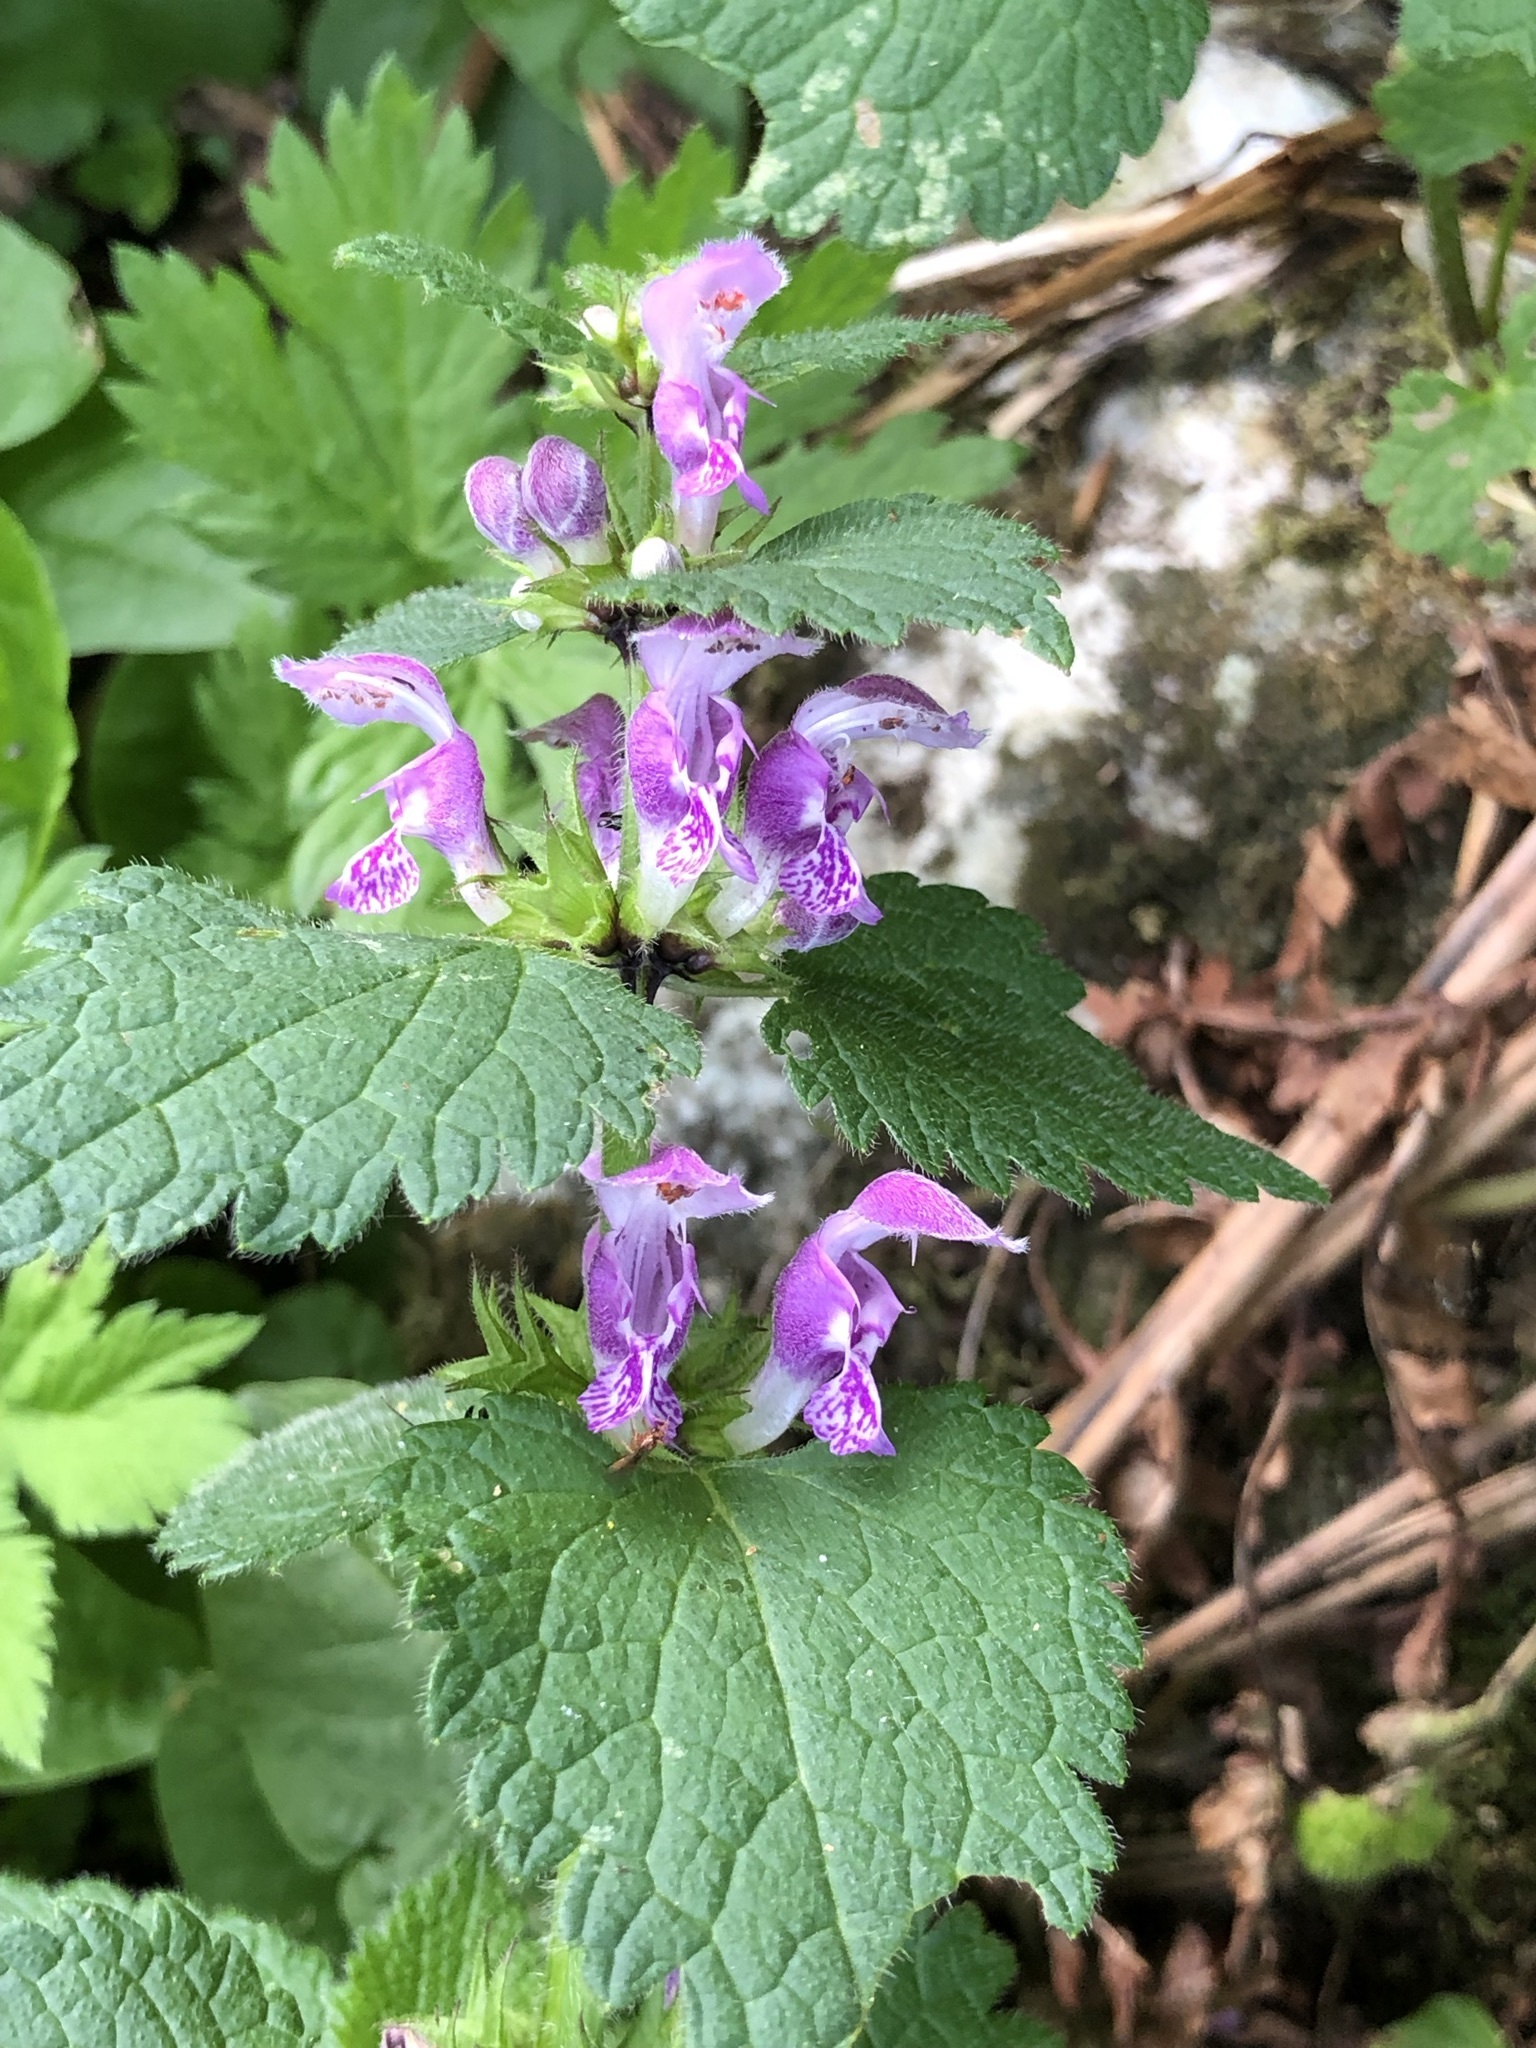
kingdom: Plantae
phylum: Tracheophyta
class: Magnoliopsida
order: Lamiales
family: Lamiaceae
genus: Lamium
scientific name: Lamium maculatum
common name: Spotted dead-nettle
